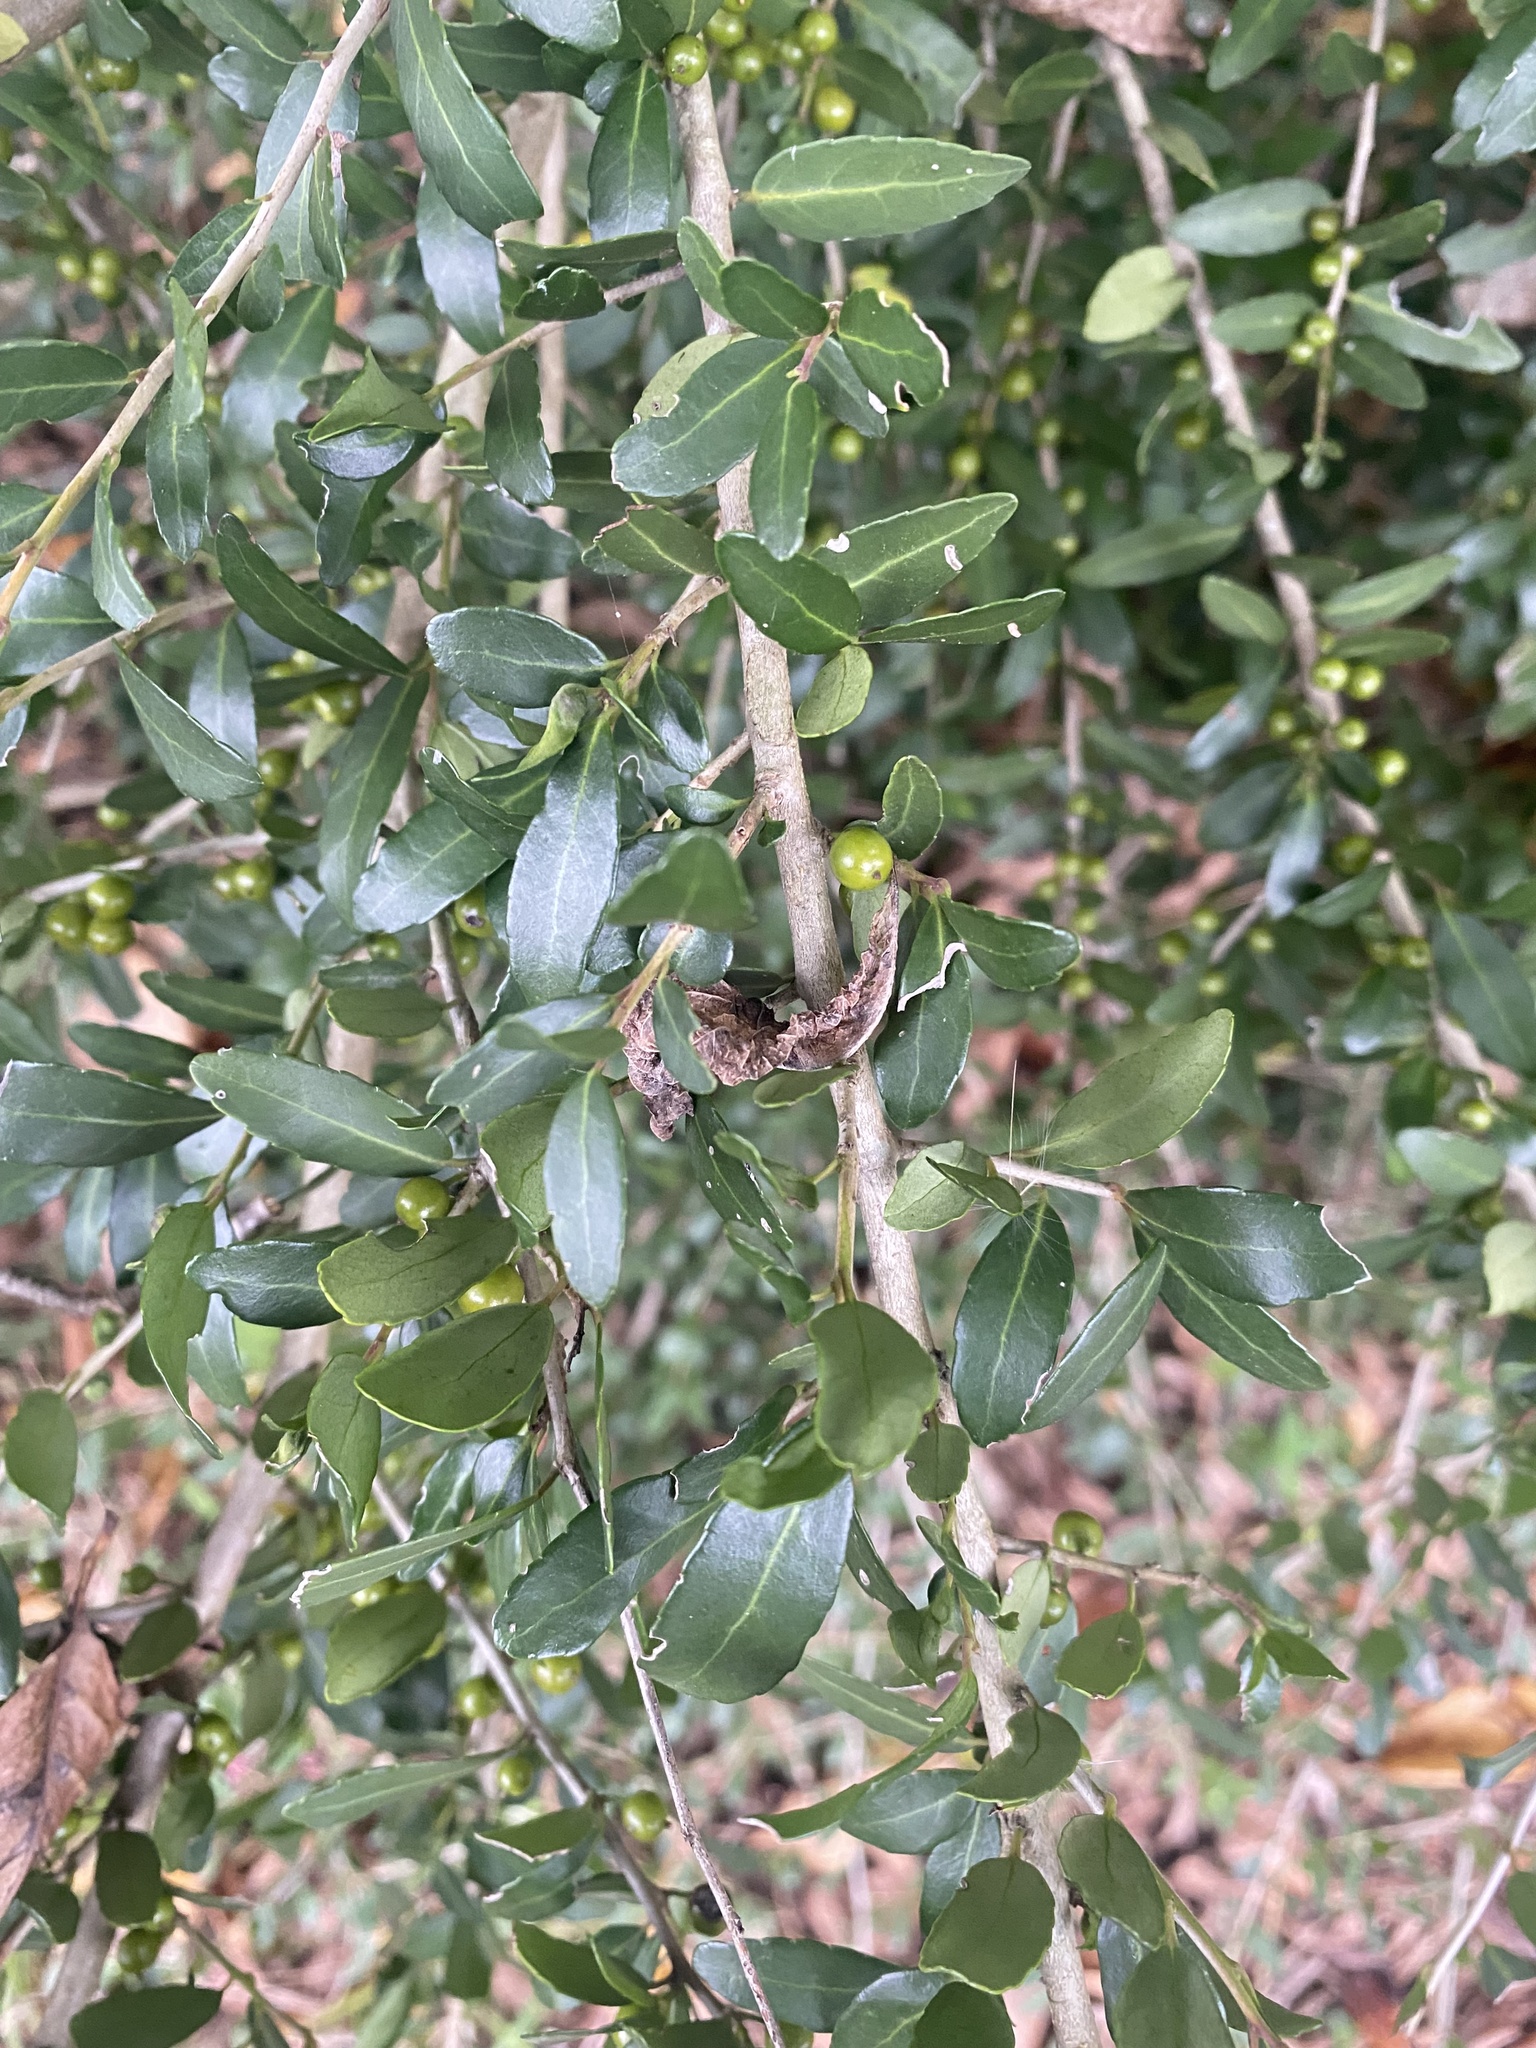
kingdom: Plantae
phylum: Tracheophyta
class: Magnoliopsida
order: Aquifoliales
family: Aquifoliaceae
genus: Ilex
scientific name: Ilex vomitoria
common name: Yaupon holly
